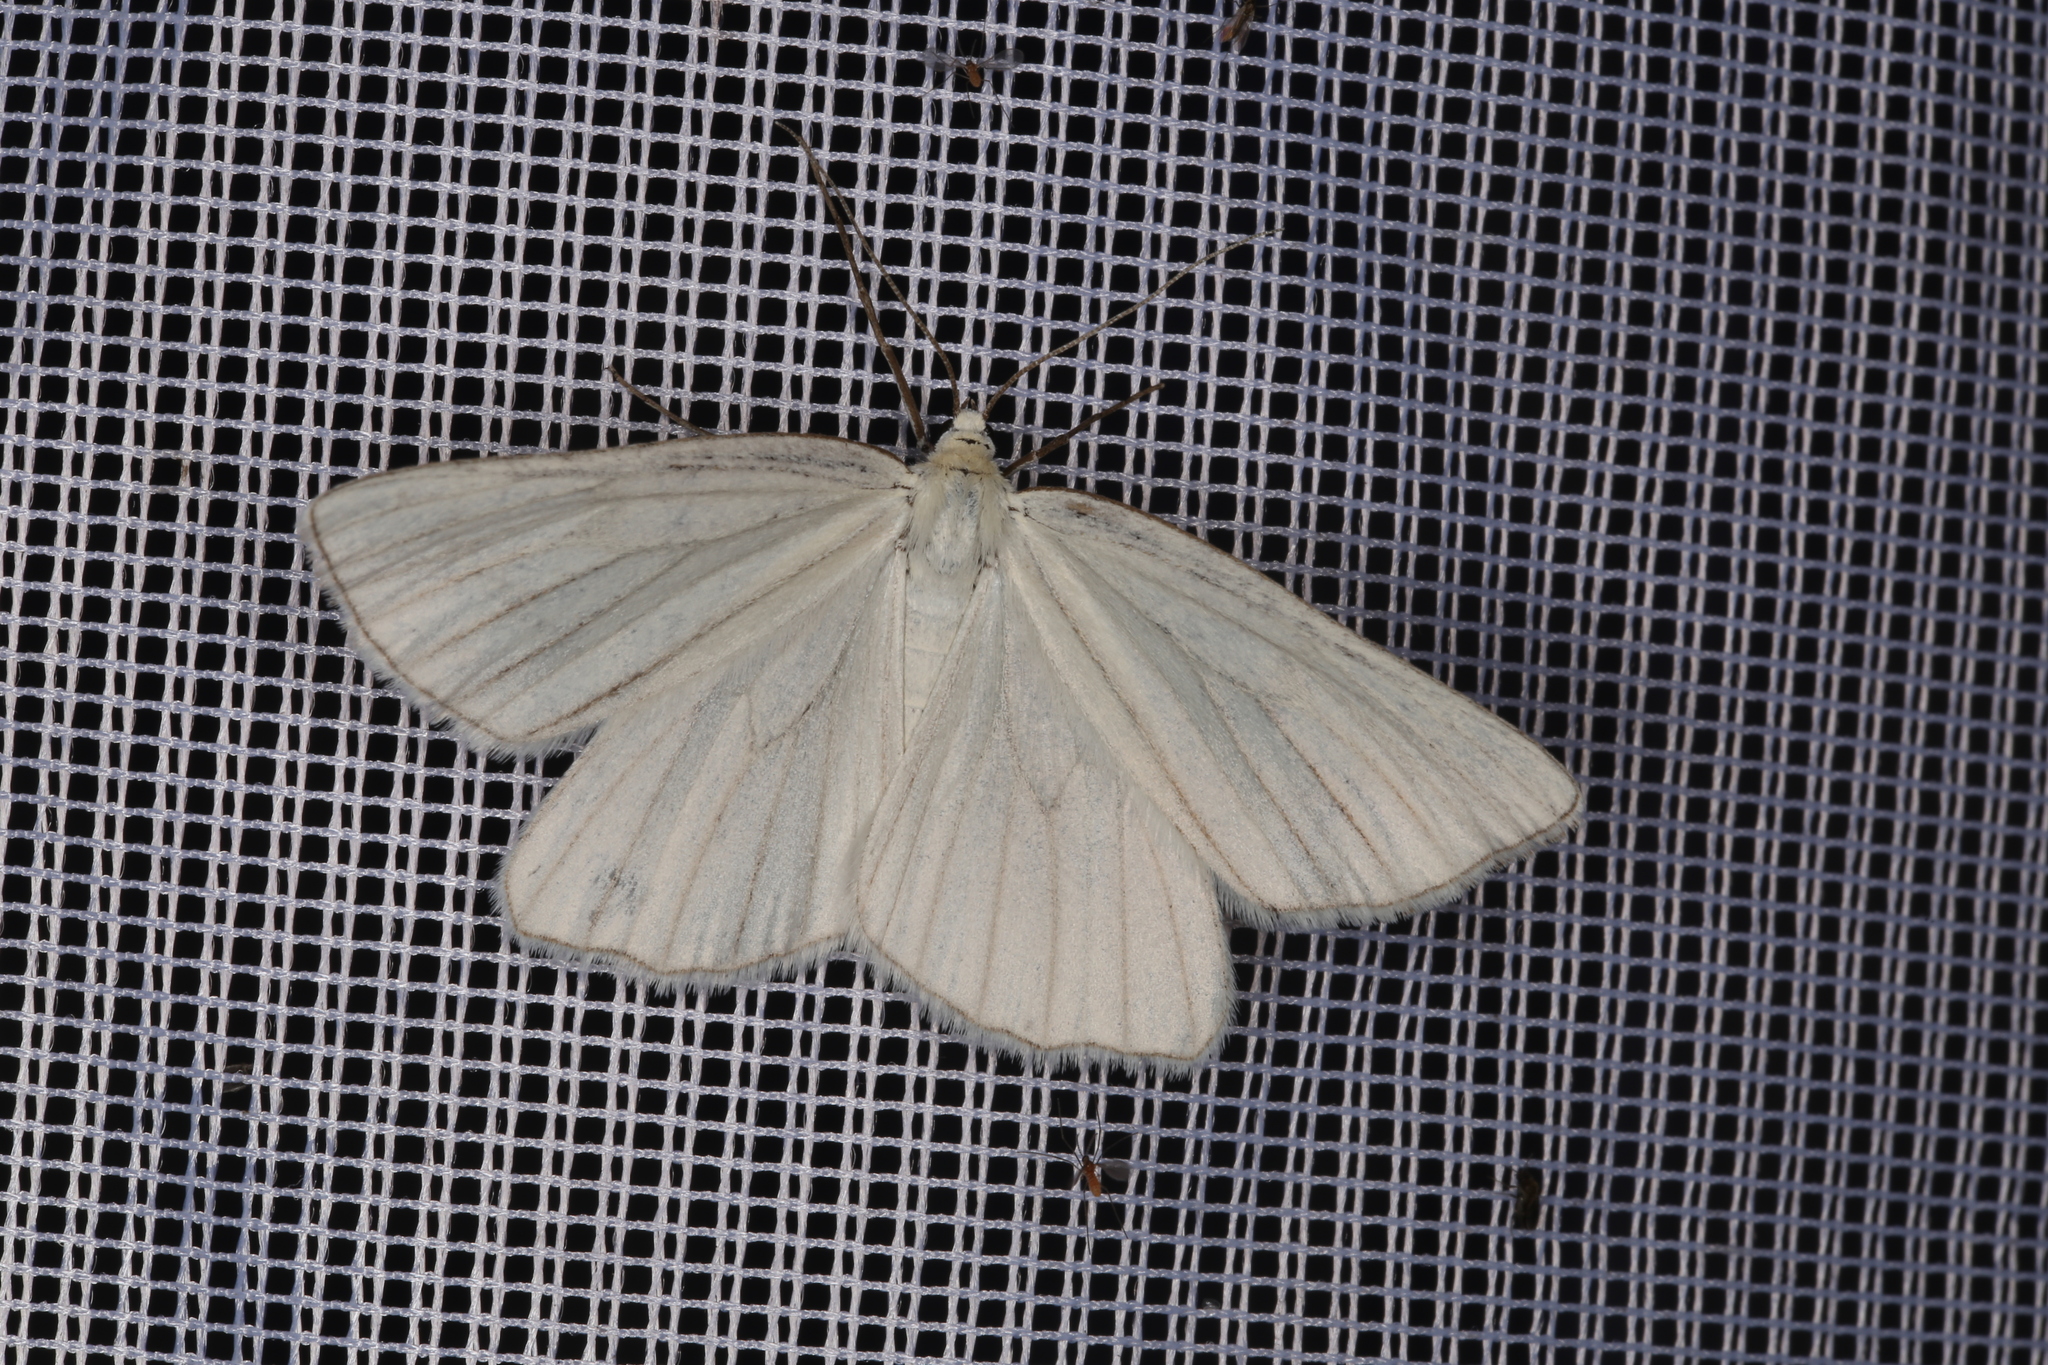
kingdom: Animalia
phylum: Arthropoda
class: Insecta
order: Lepidoptera
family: Geometridae
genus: Siona
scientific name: Siona lineata
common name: Black-veined moth
